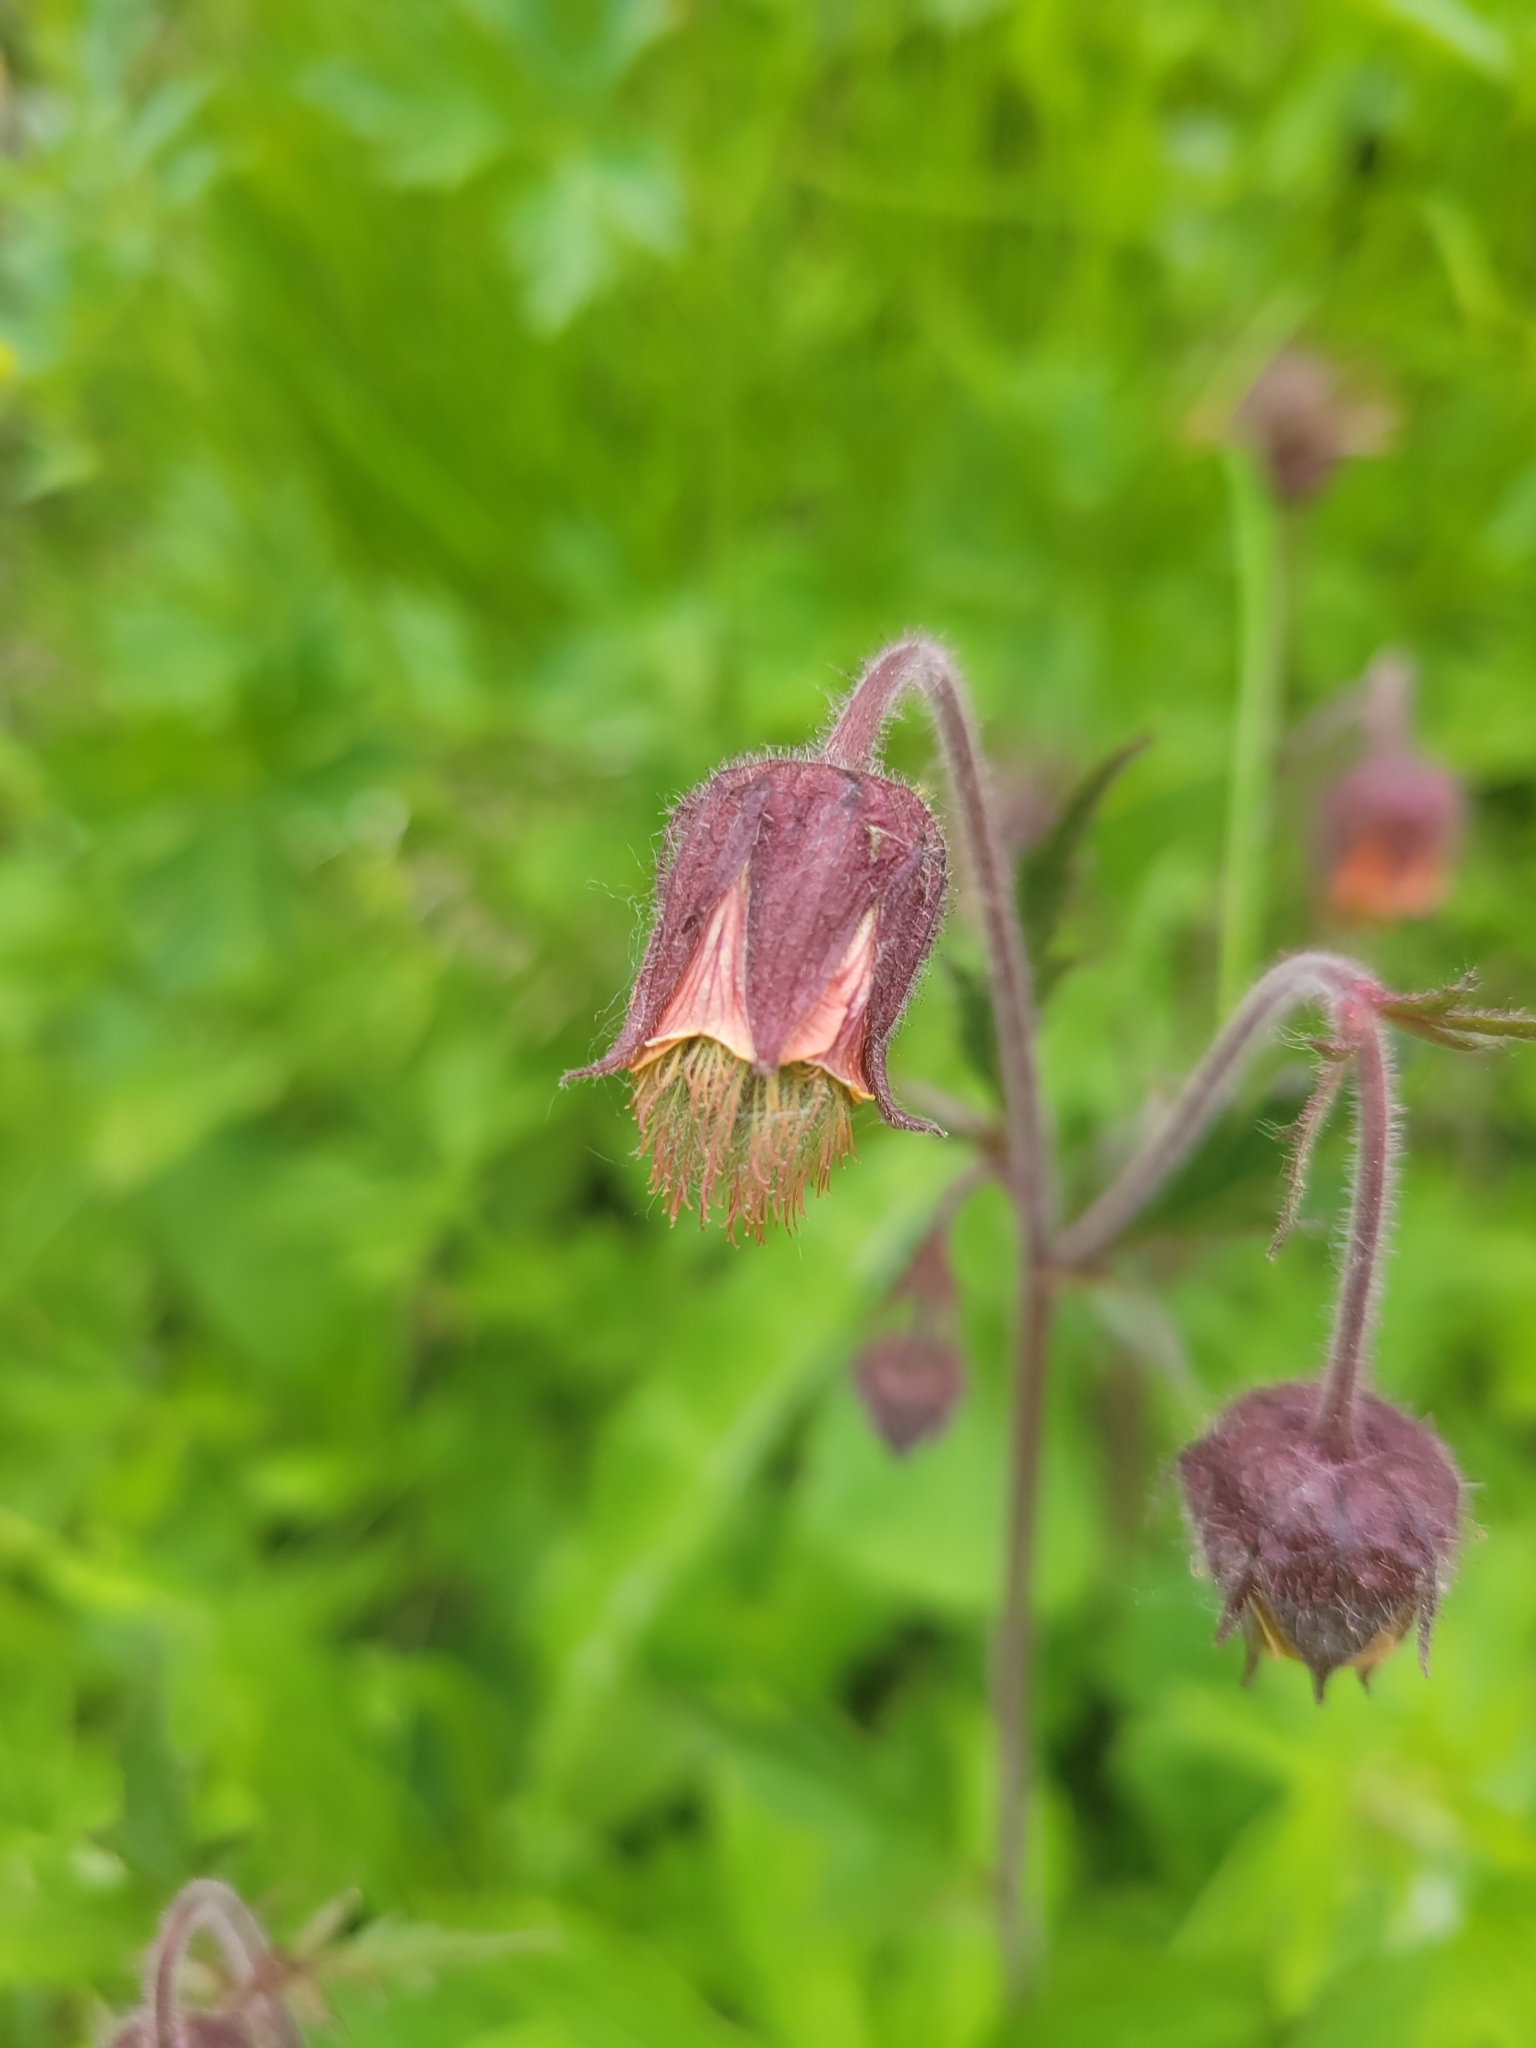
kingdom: Plantae
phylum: Tracheophyta
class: Magnoliopsida
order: Rosales
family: Rosaceae
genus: Geum
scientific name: Geum rivale
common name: Water avens
